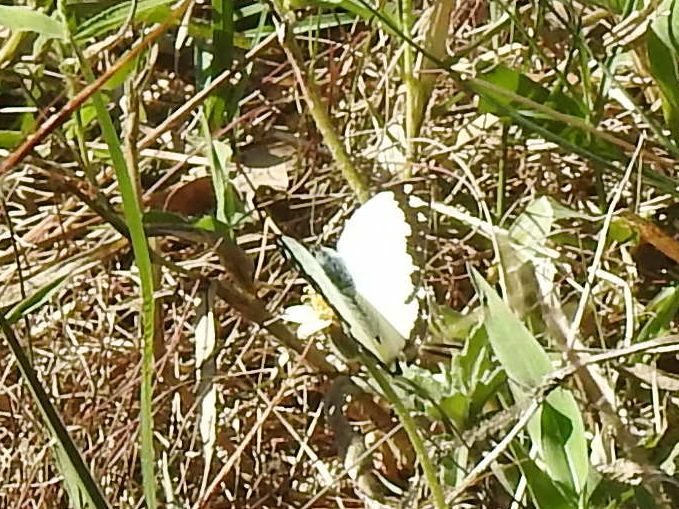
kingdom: Animalia
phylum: Arthropoda
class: Insecta
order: Lepidoptera
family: Pieridae
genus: Belenois
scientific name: Belenois creona
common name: African caper white
